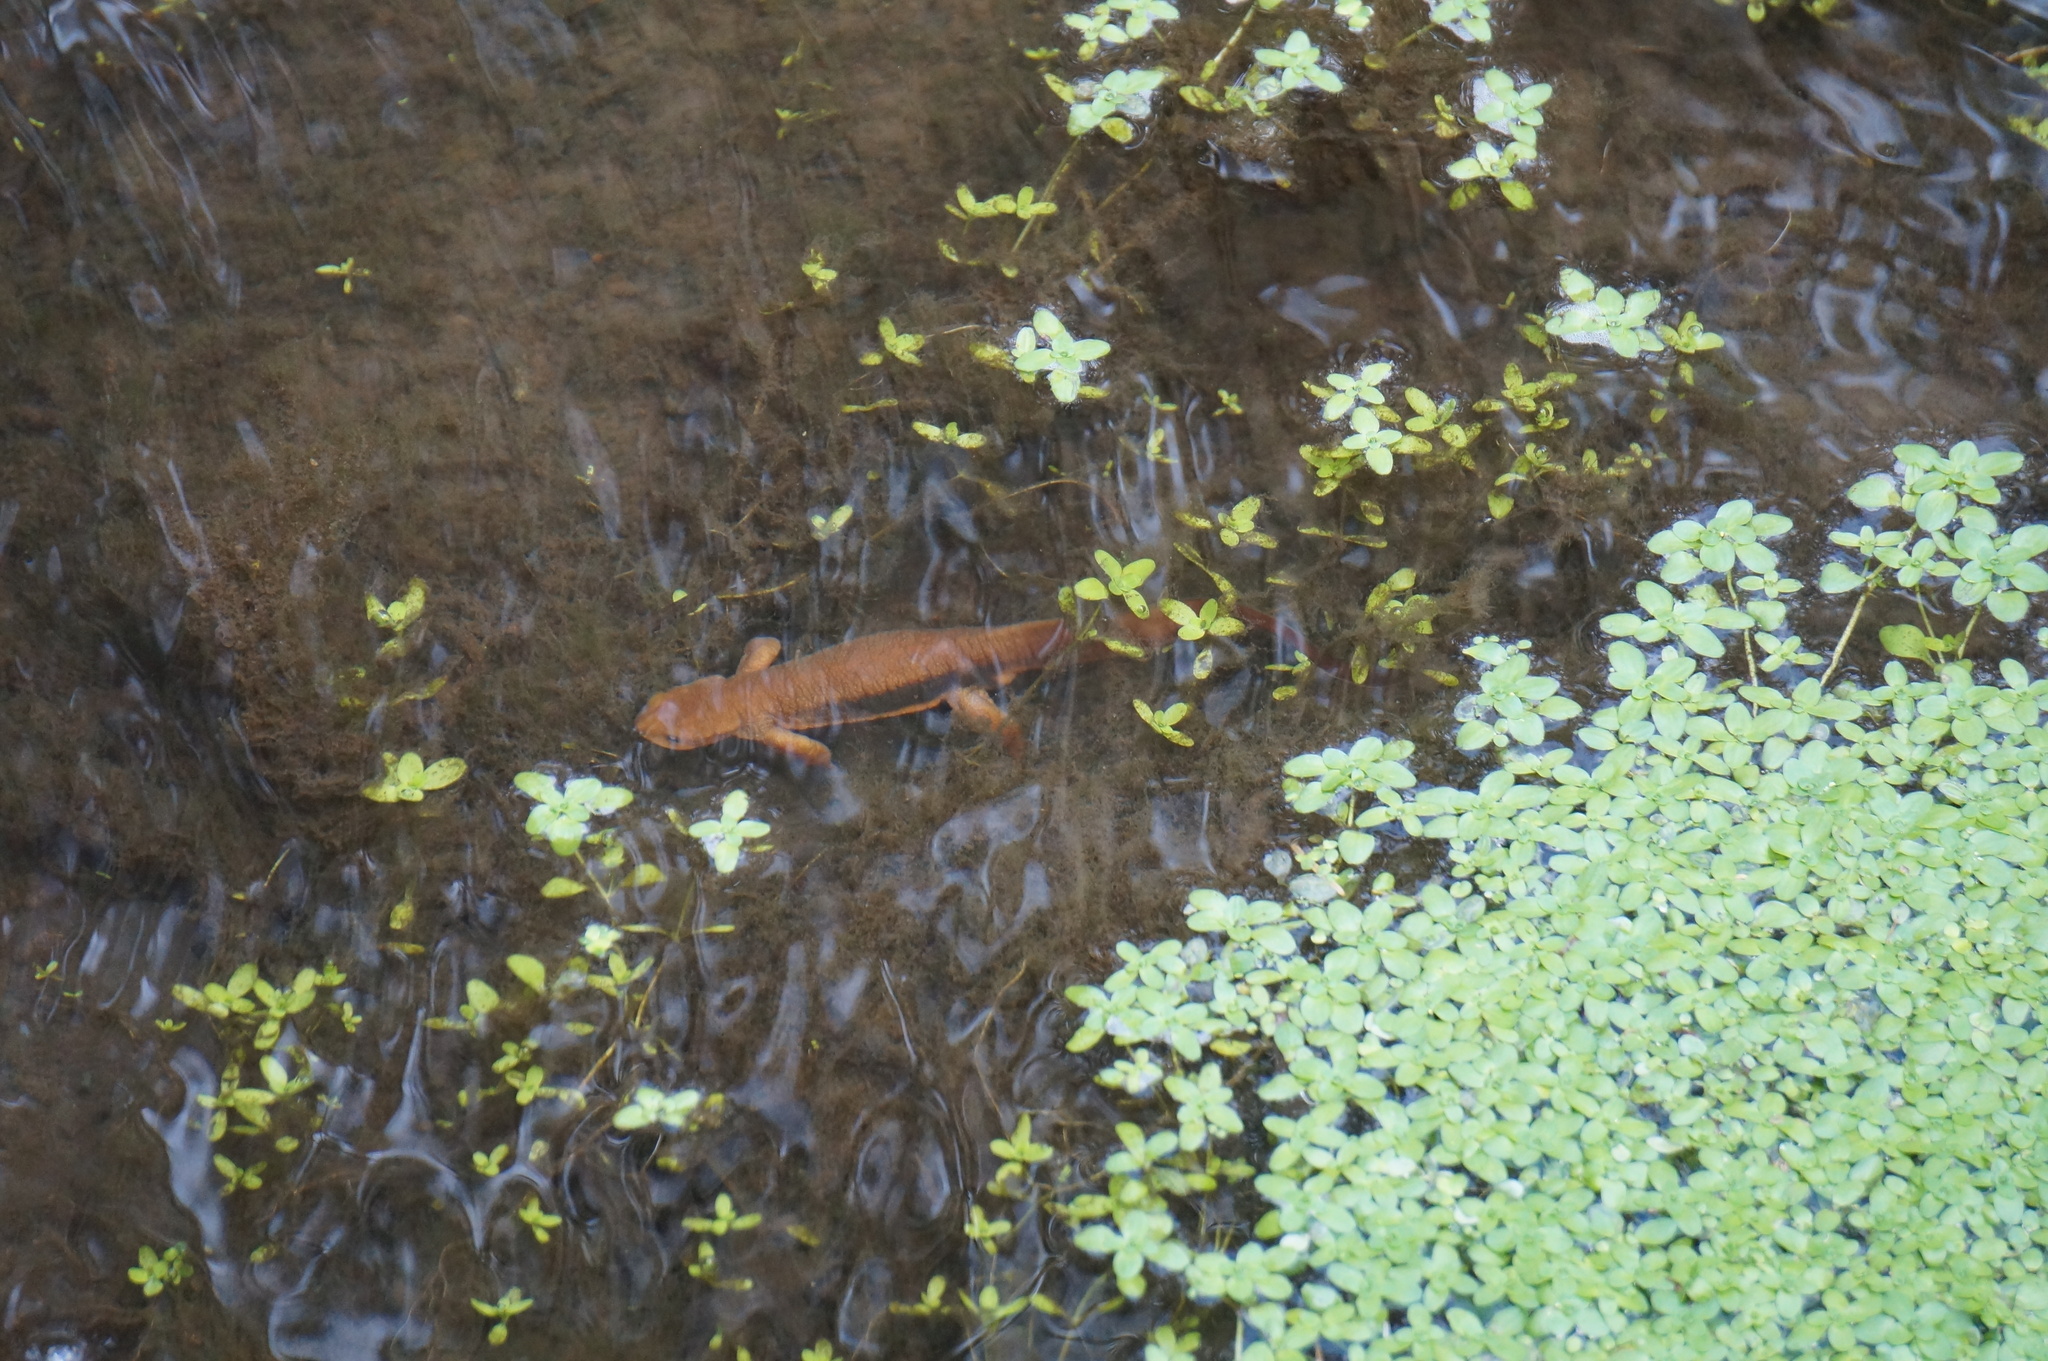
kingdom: Animalia
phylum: Chordata
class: Amphibia
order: Caudata
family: Salamandridae
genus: Taricha
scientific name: Taricha granulosa
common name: Roughskin newt
